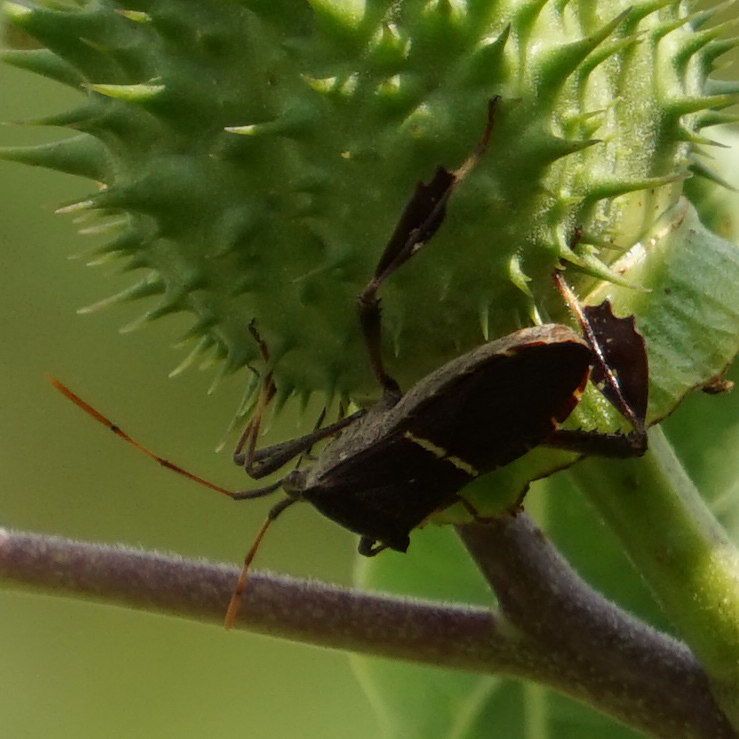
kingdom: Animalia
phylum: Arthropoda
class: Insecta
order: Hemiptera
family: Coreidae
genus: Leptoglossus
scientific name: Leptoglossus phyllopus
